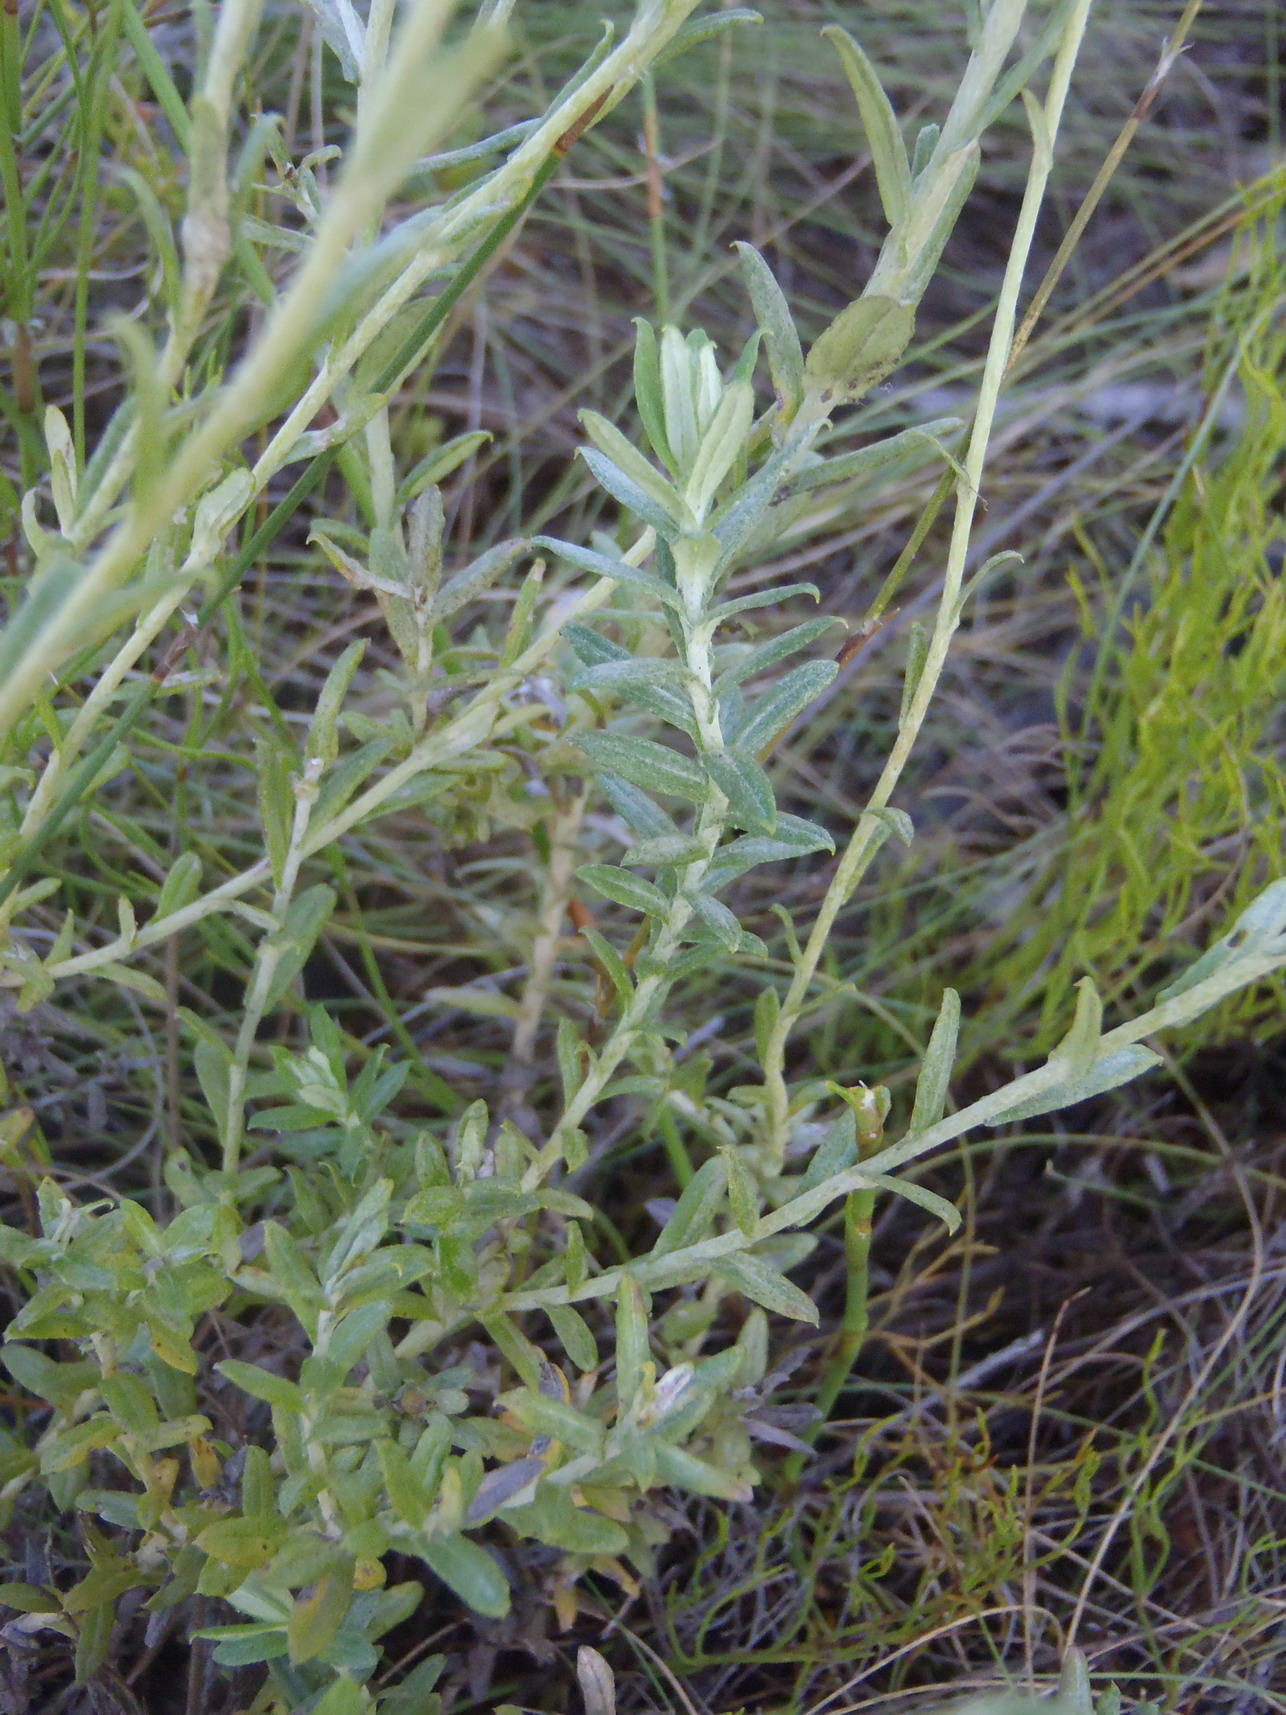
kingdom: Plantae
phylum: Tracheophyta
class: Magnoliopsida
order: Asterales
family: Asteraceae
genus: Helichrysum
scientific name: Helichrysum cymosum
